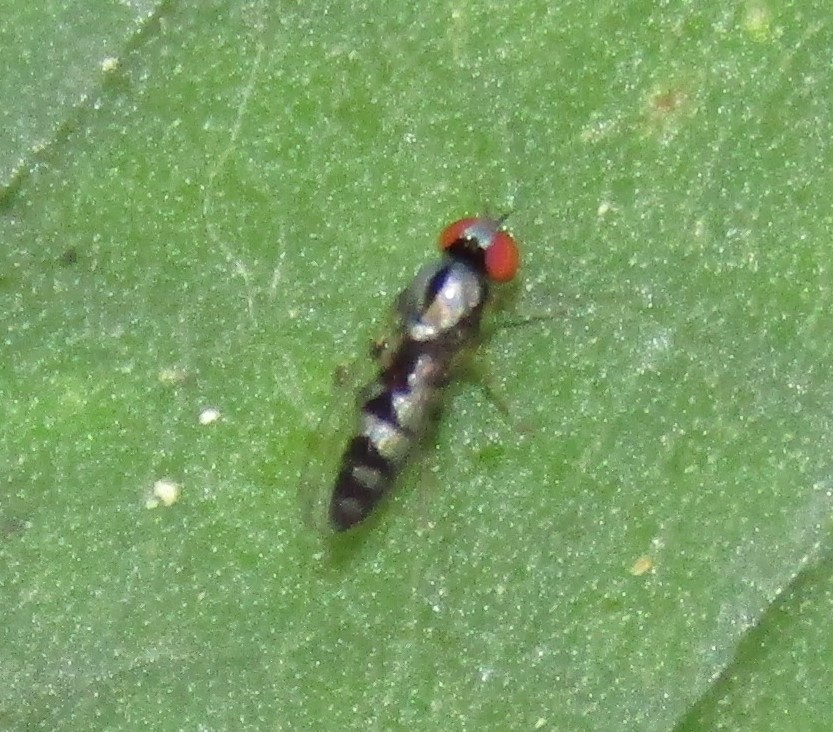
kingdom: Animalia
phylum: Arthropoda
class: Insecta
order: Diptera
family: Platypezidae
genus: Bertamyia
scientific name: Bertamyia notata
